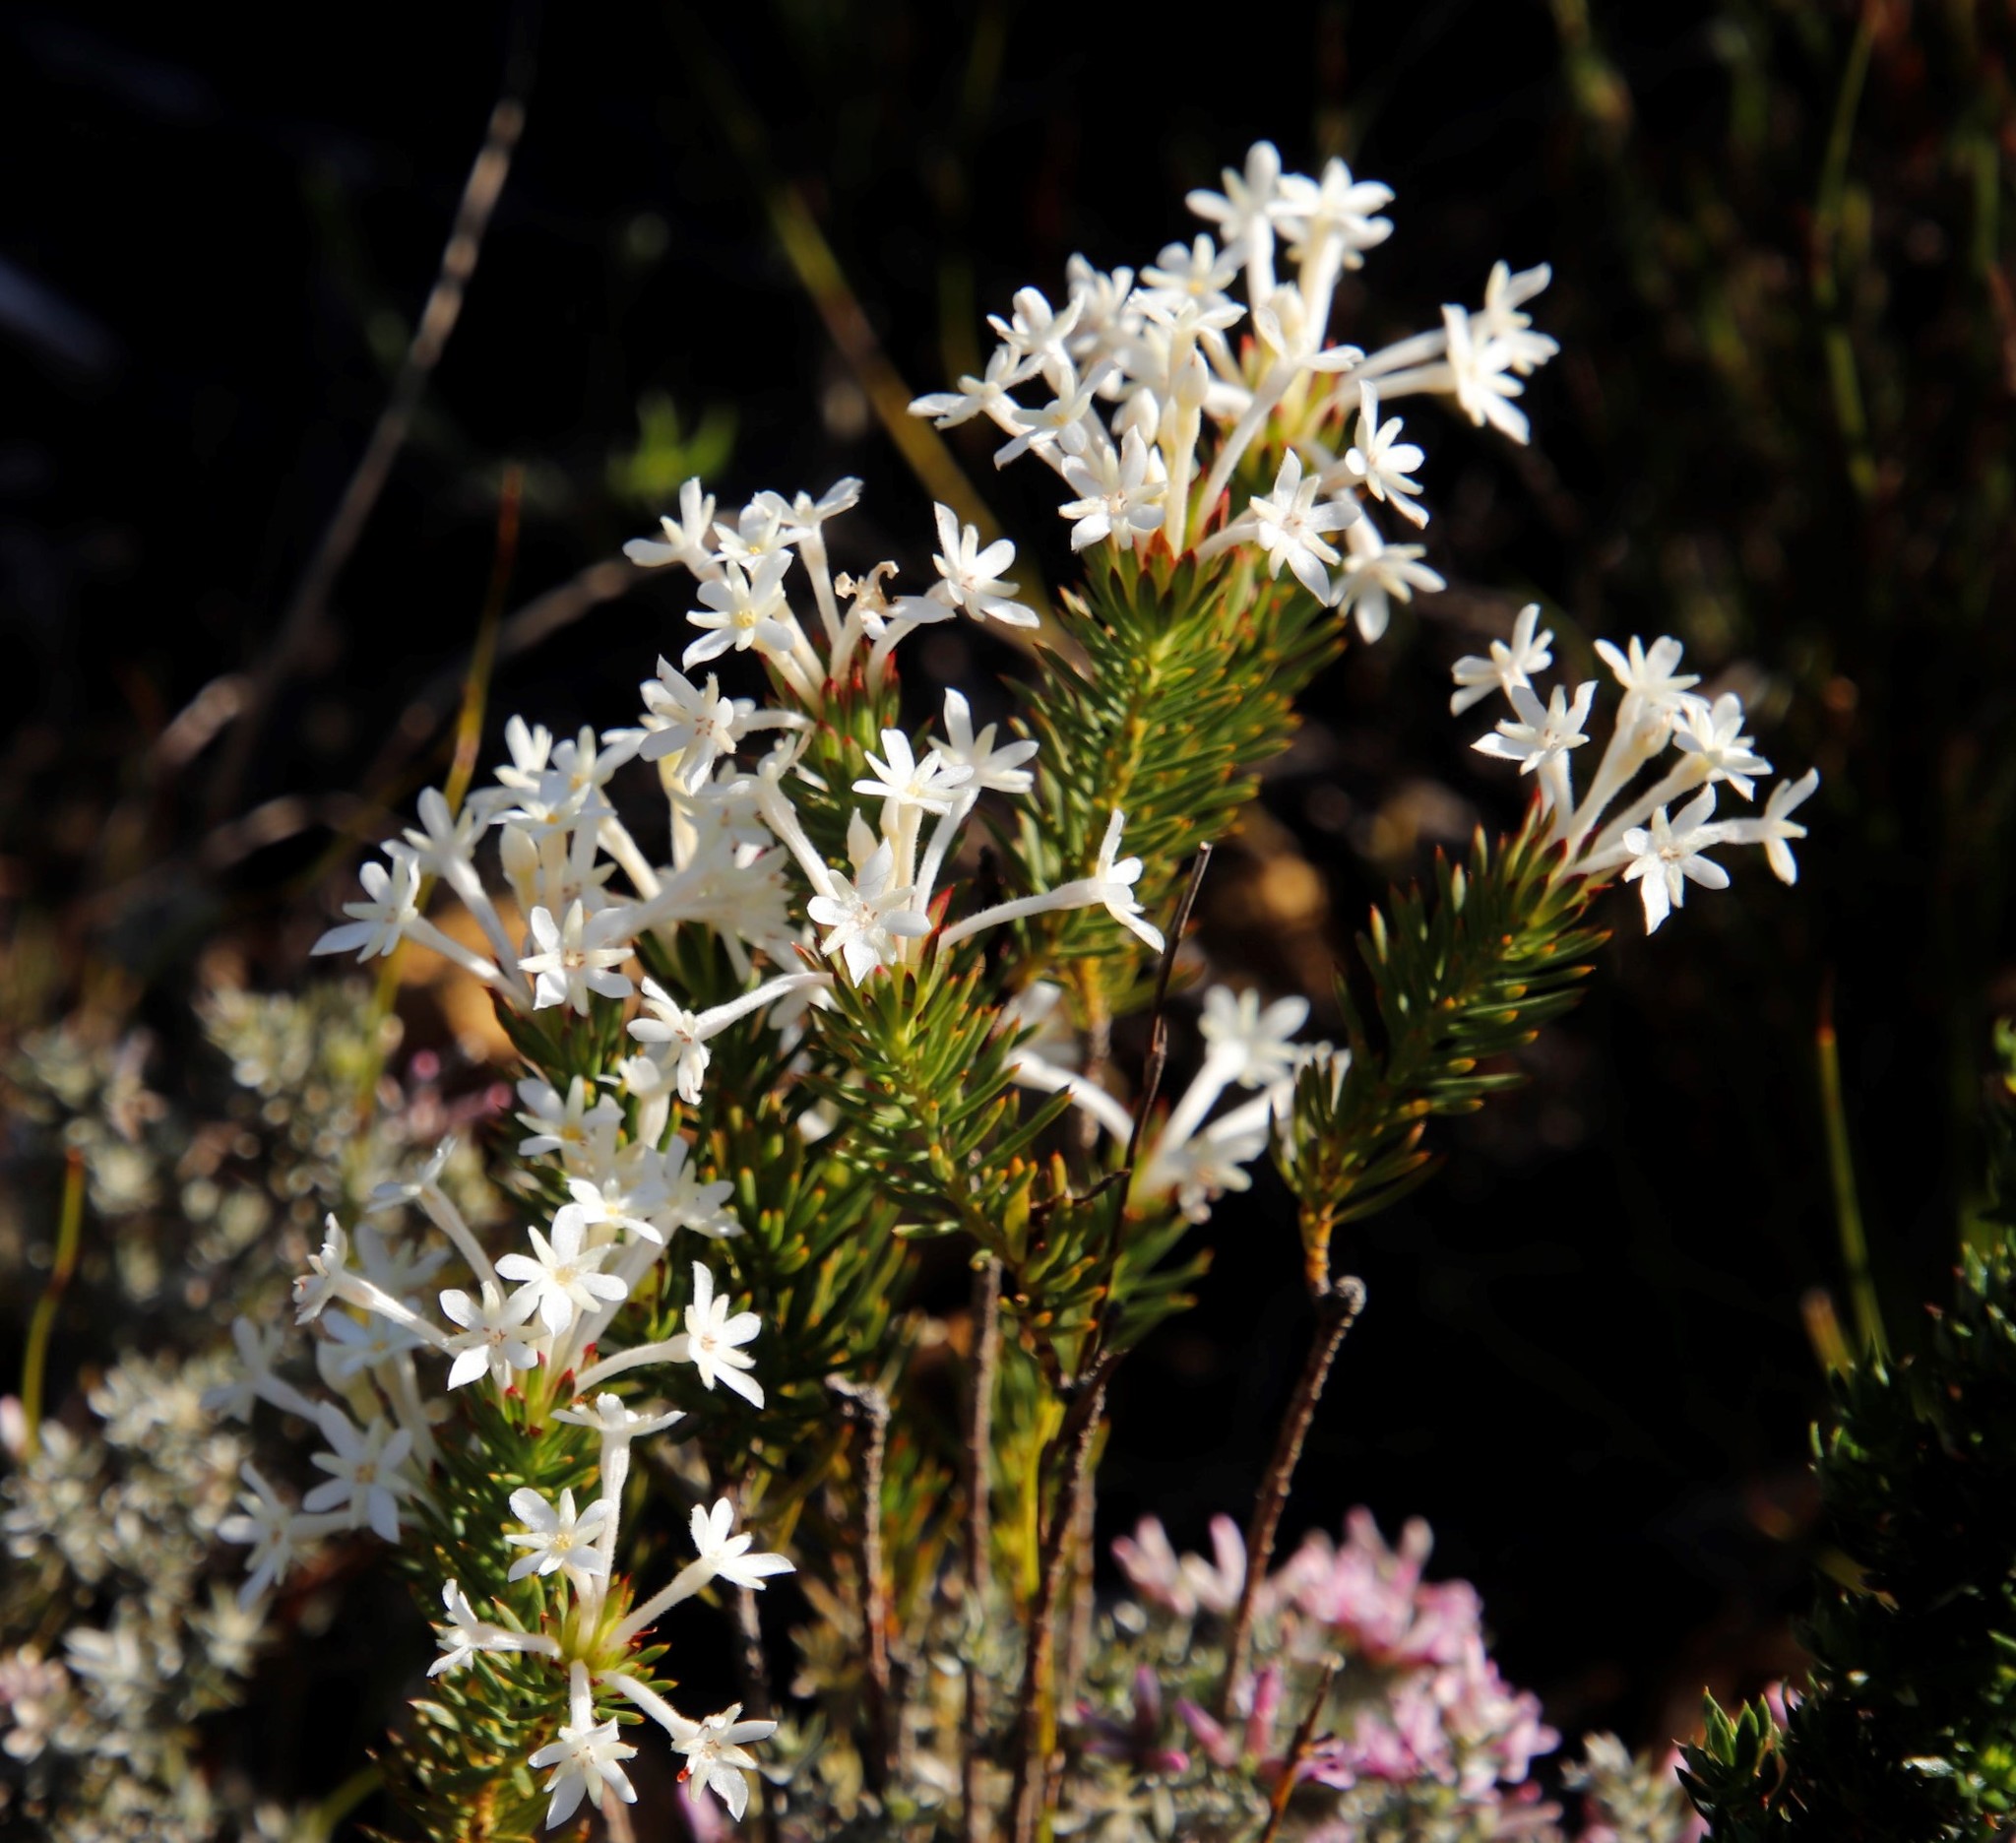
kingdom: Plantae
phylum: Tracheophyta
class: Magnoliopsida
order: Malvales
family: Thymelaeaceae
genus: Gnidia
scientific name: Gnidia pinifolia
